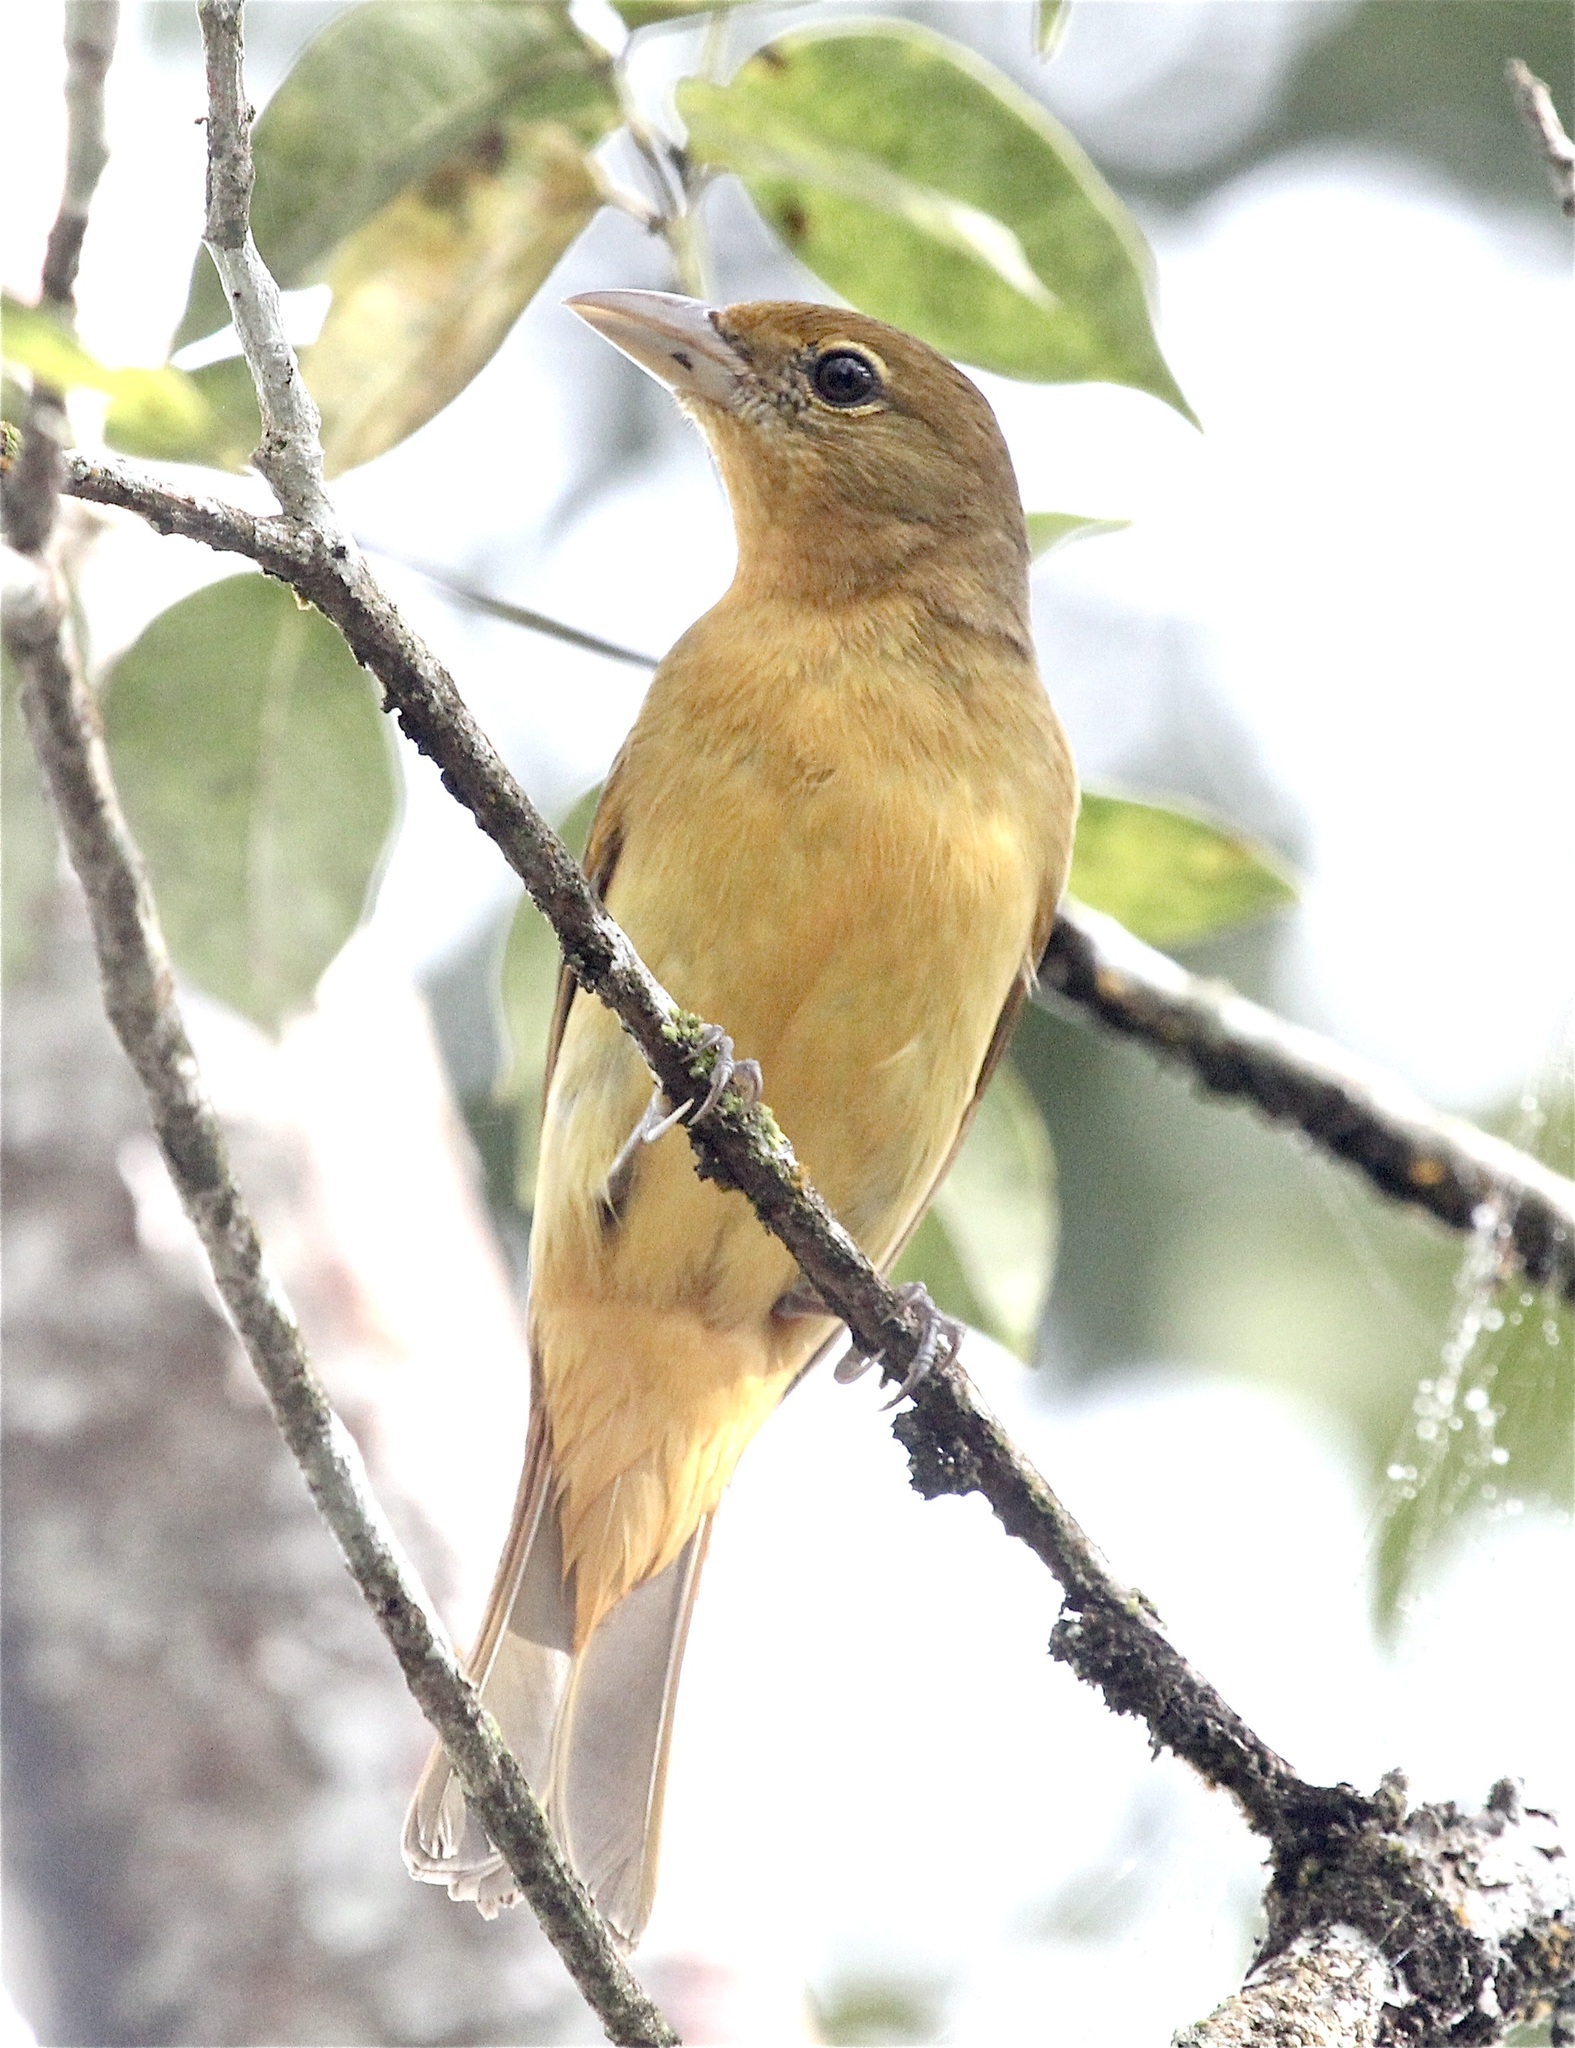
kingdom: Animalia
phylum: Chordata
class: Aves
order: Passeriformes
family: Cardinalidae
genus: Piranga
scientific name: Piranga rubra
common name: Summer tanager
